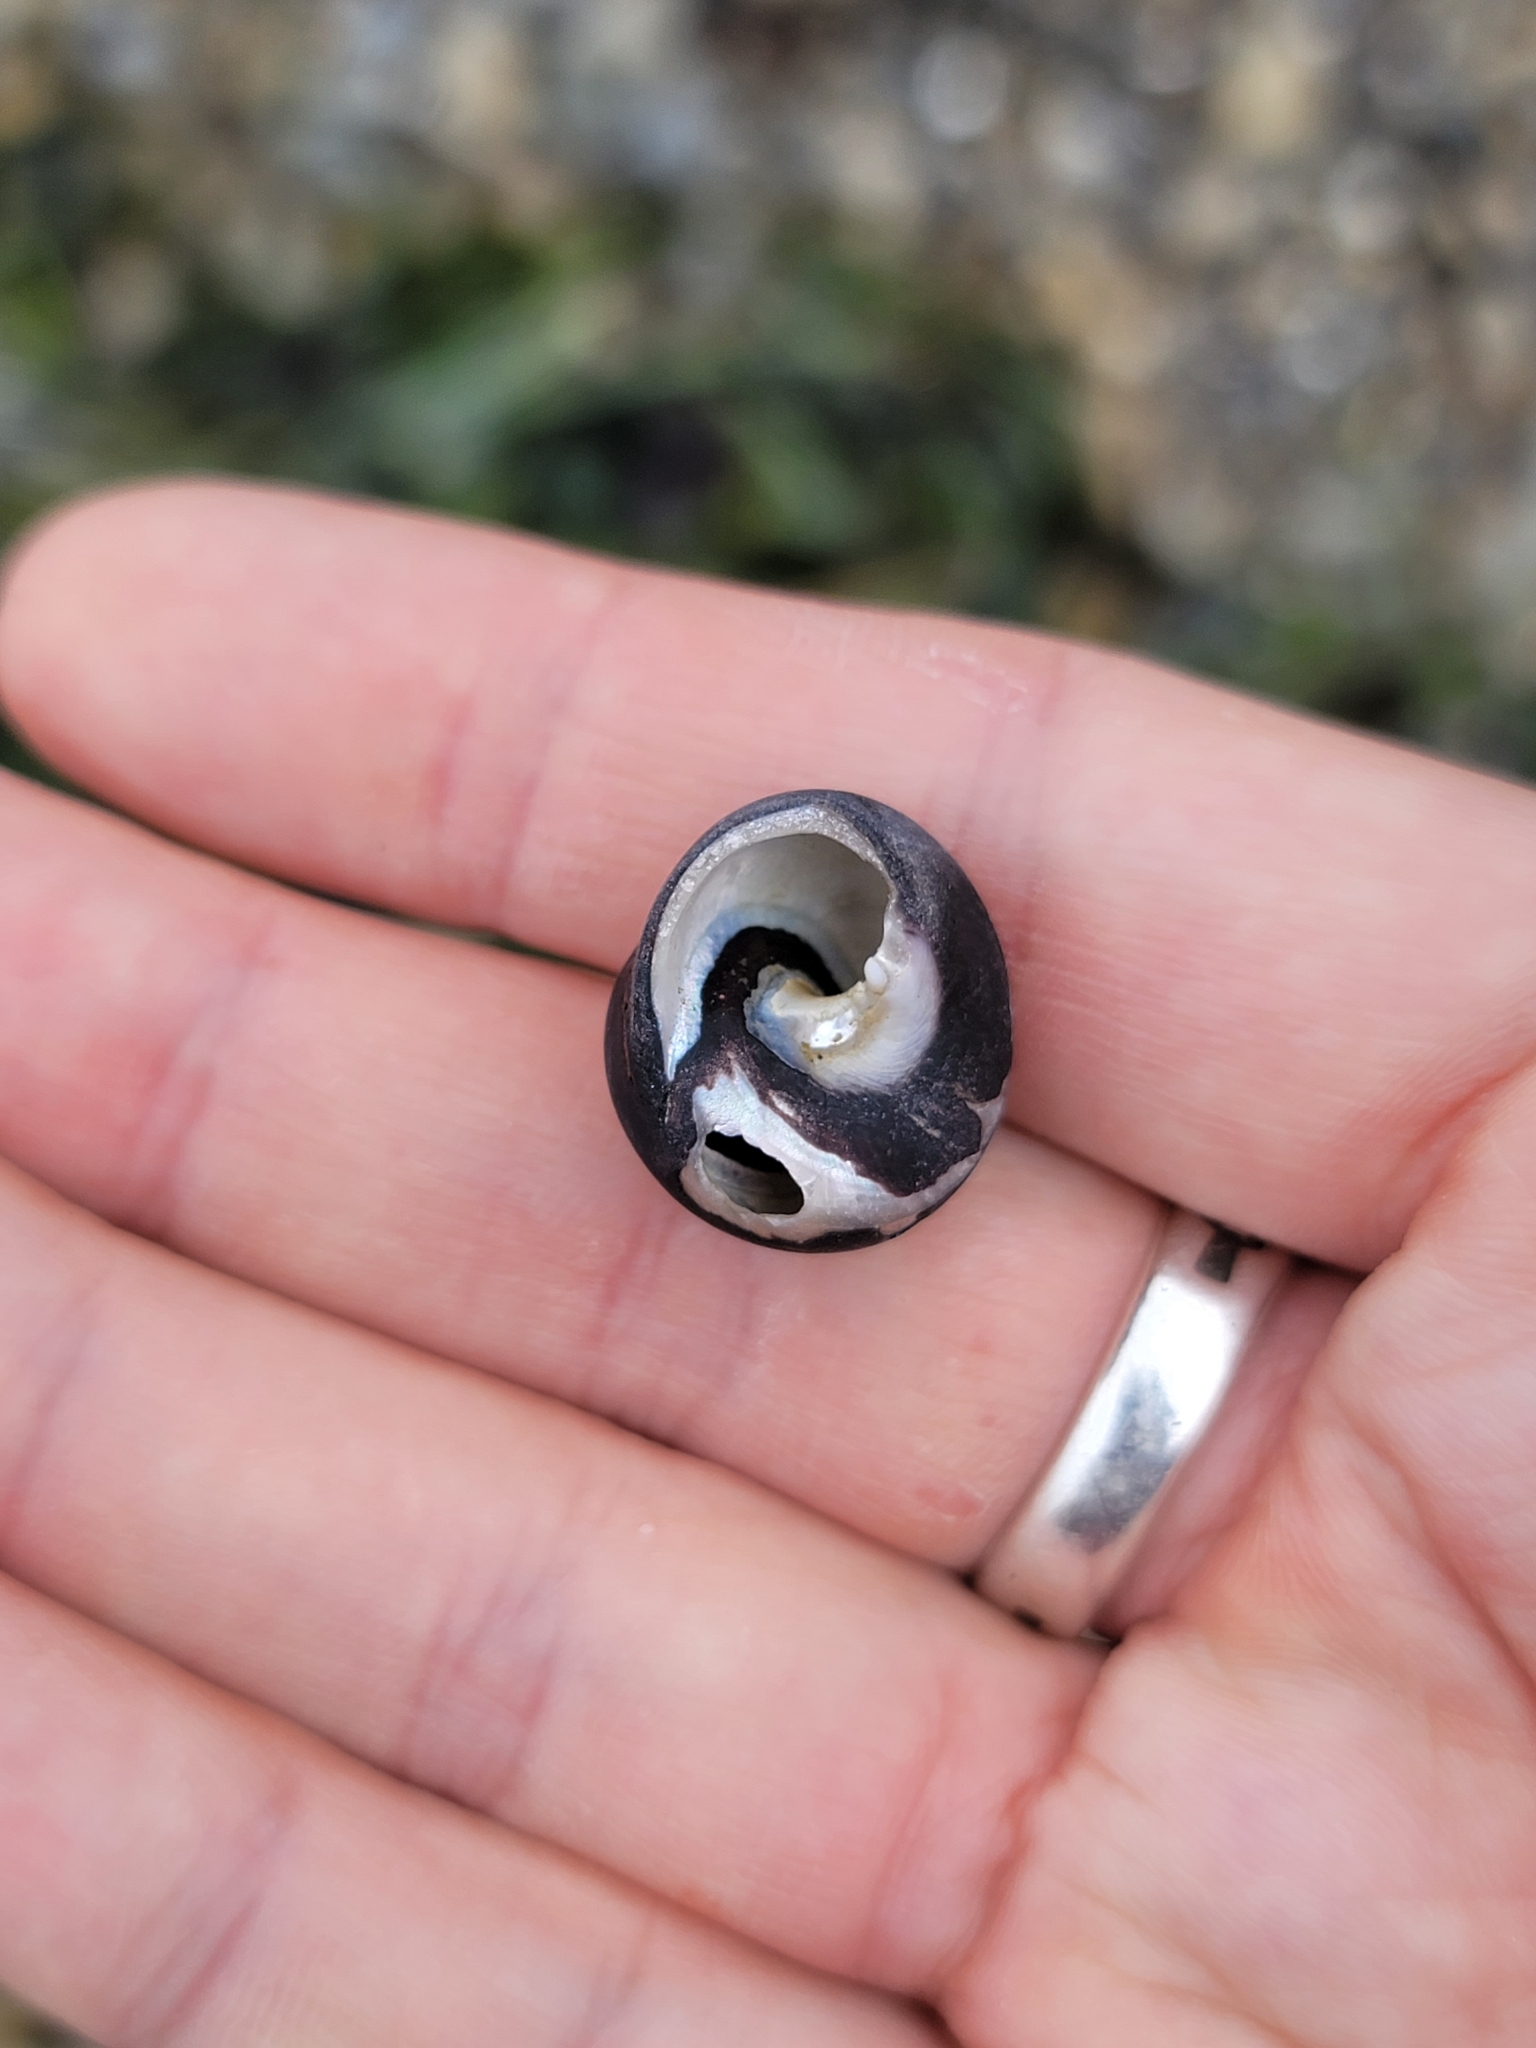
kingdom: Animalia
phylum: Mollusca
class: Gastropoda
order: Trochida
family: Tegulidae
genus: Tegula
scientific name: Tegula funebralis
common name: Black tegula
